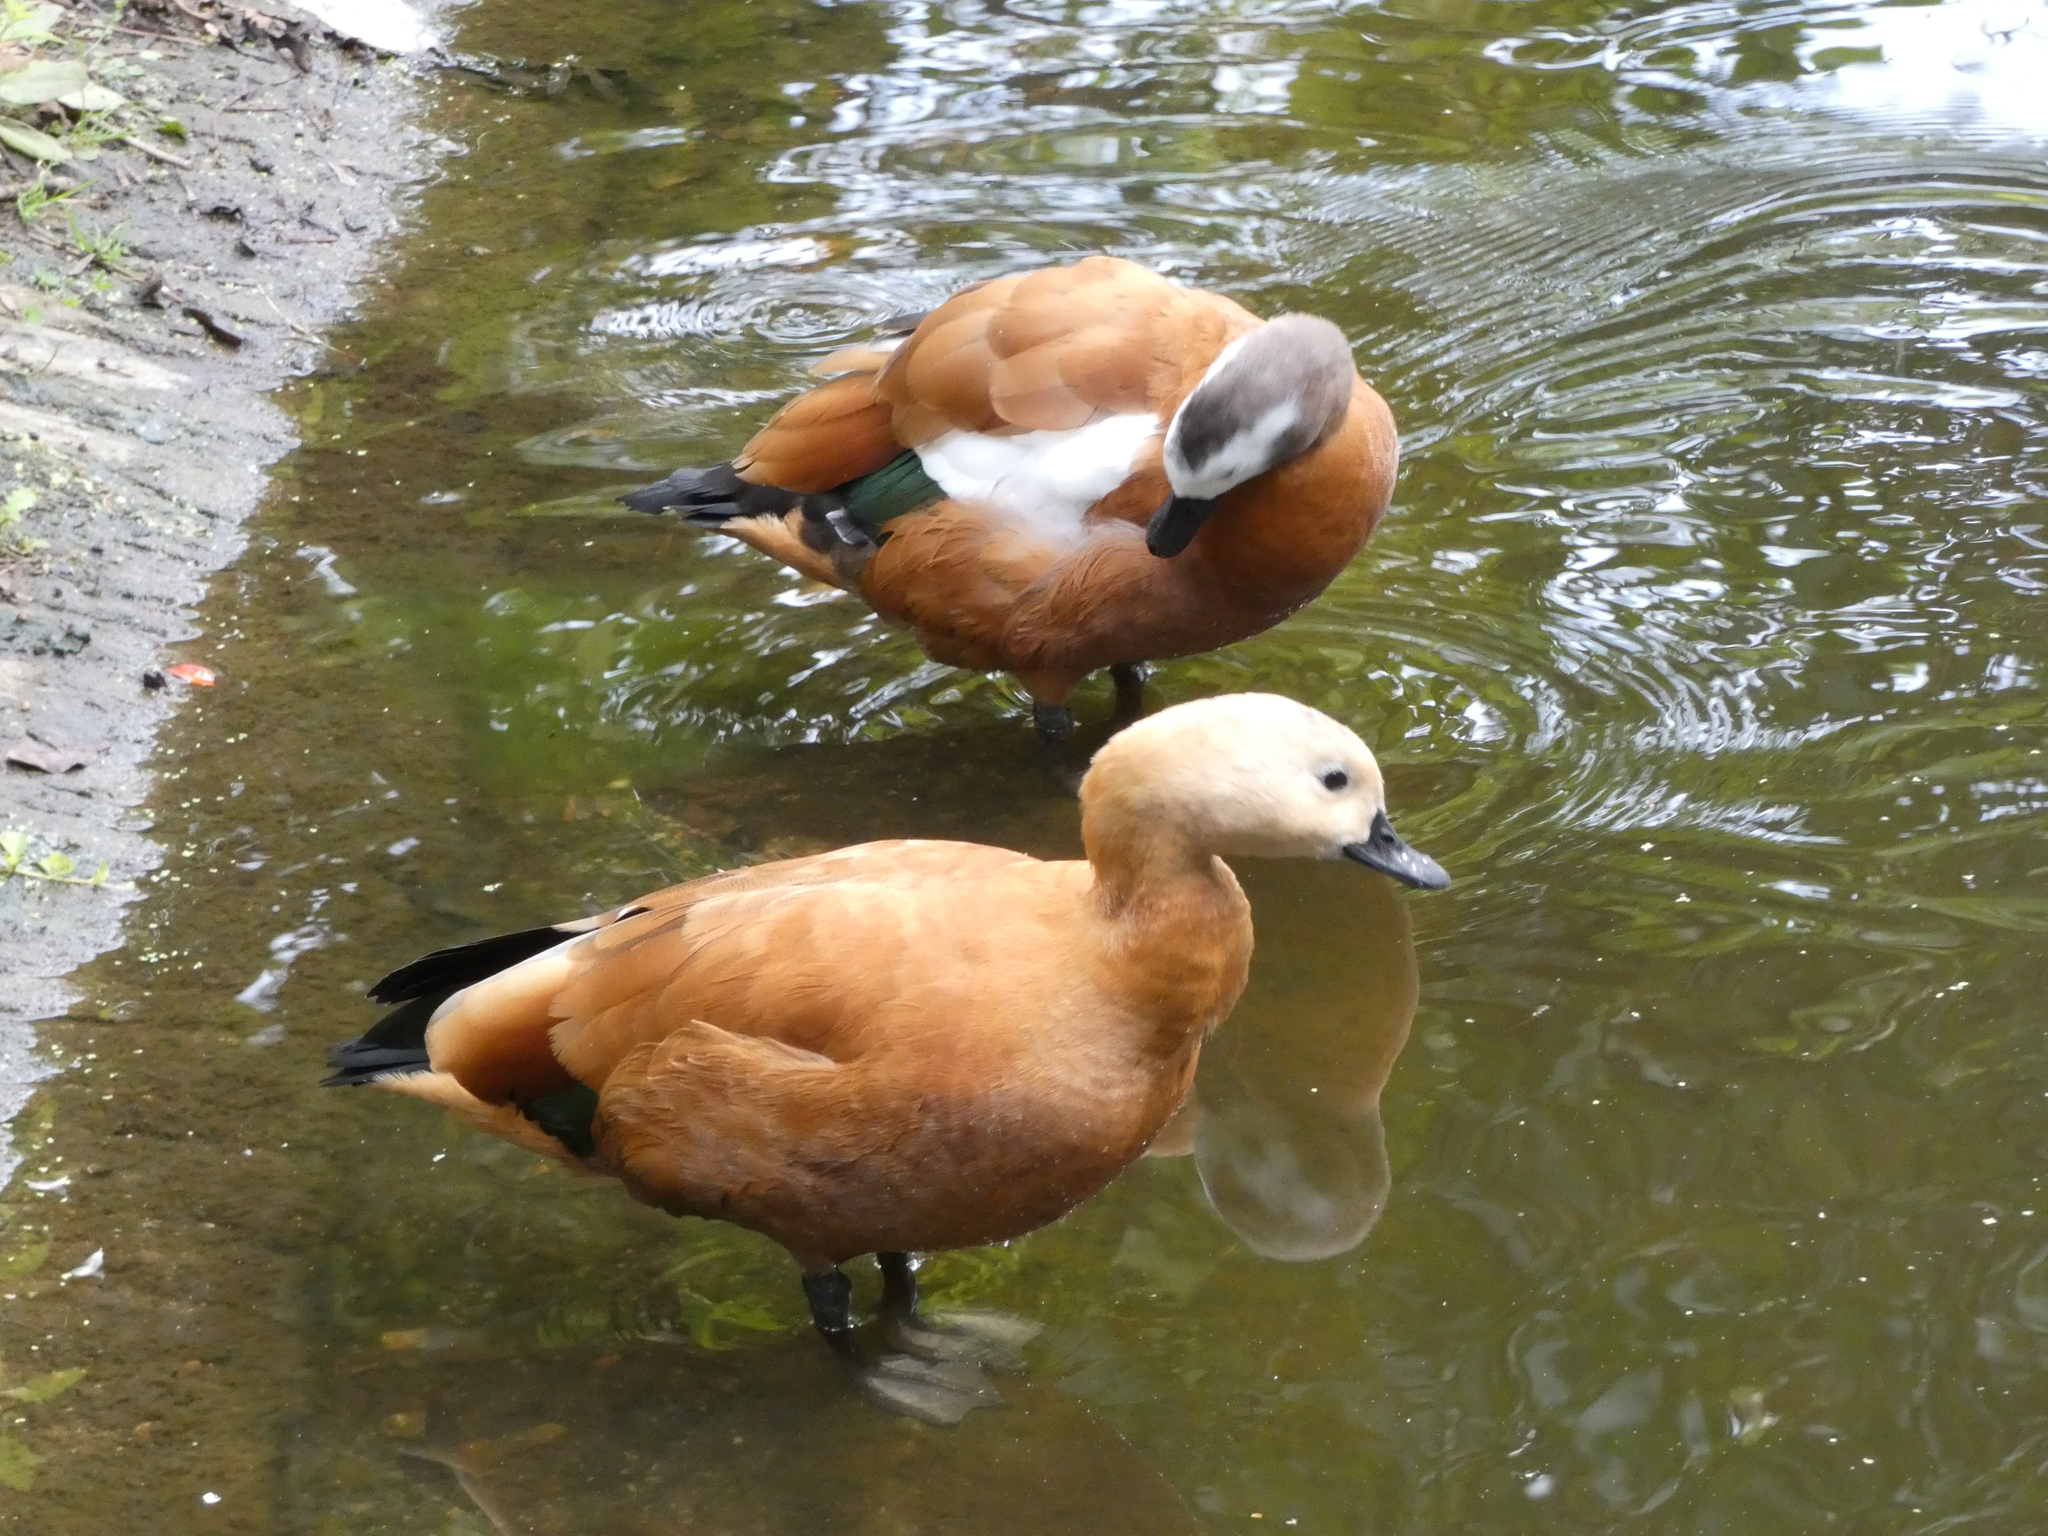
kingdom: Animalia
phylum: Chordata
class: Aves
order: Anseriformes
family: Anatidae
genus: Tadorna
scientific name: Tadorna ferruginea
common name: Ruddy shelduck
